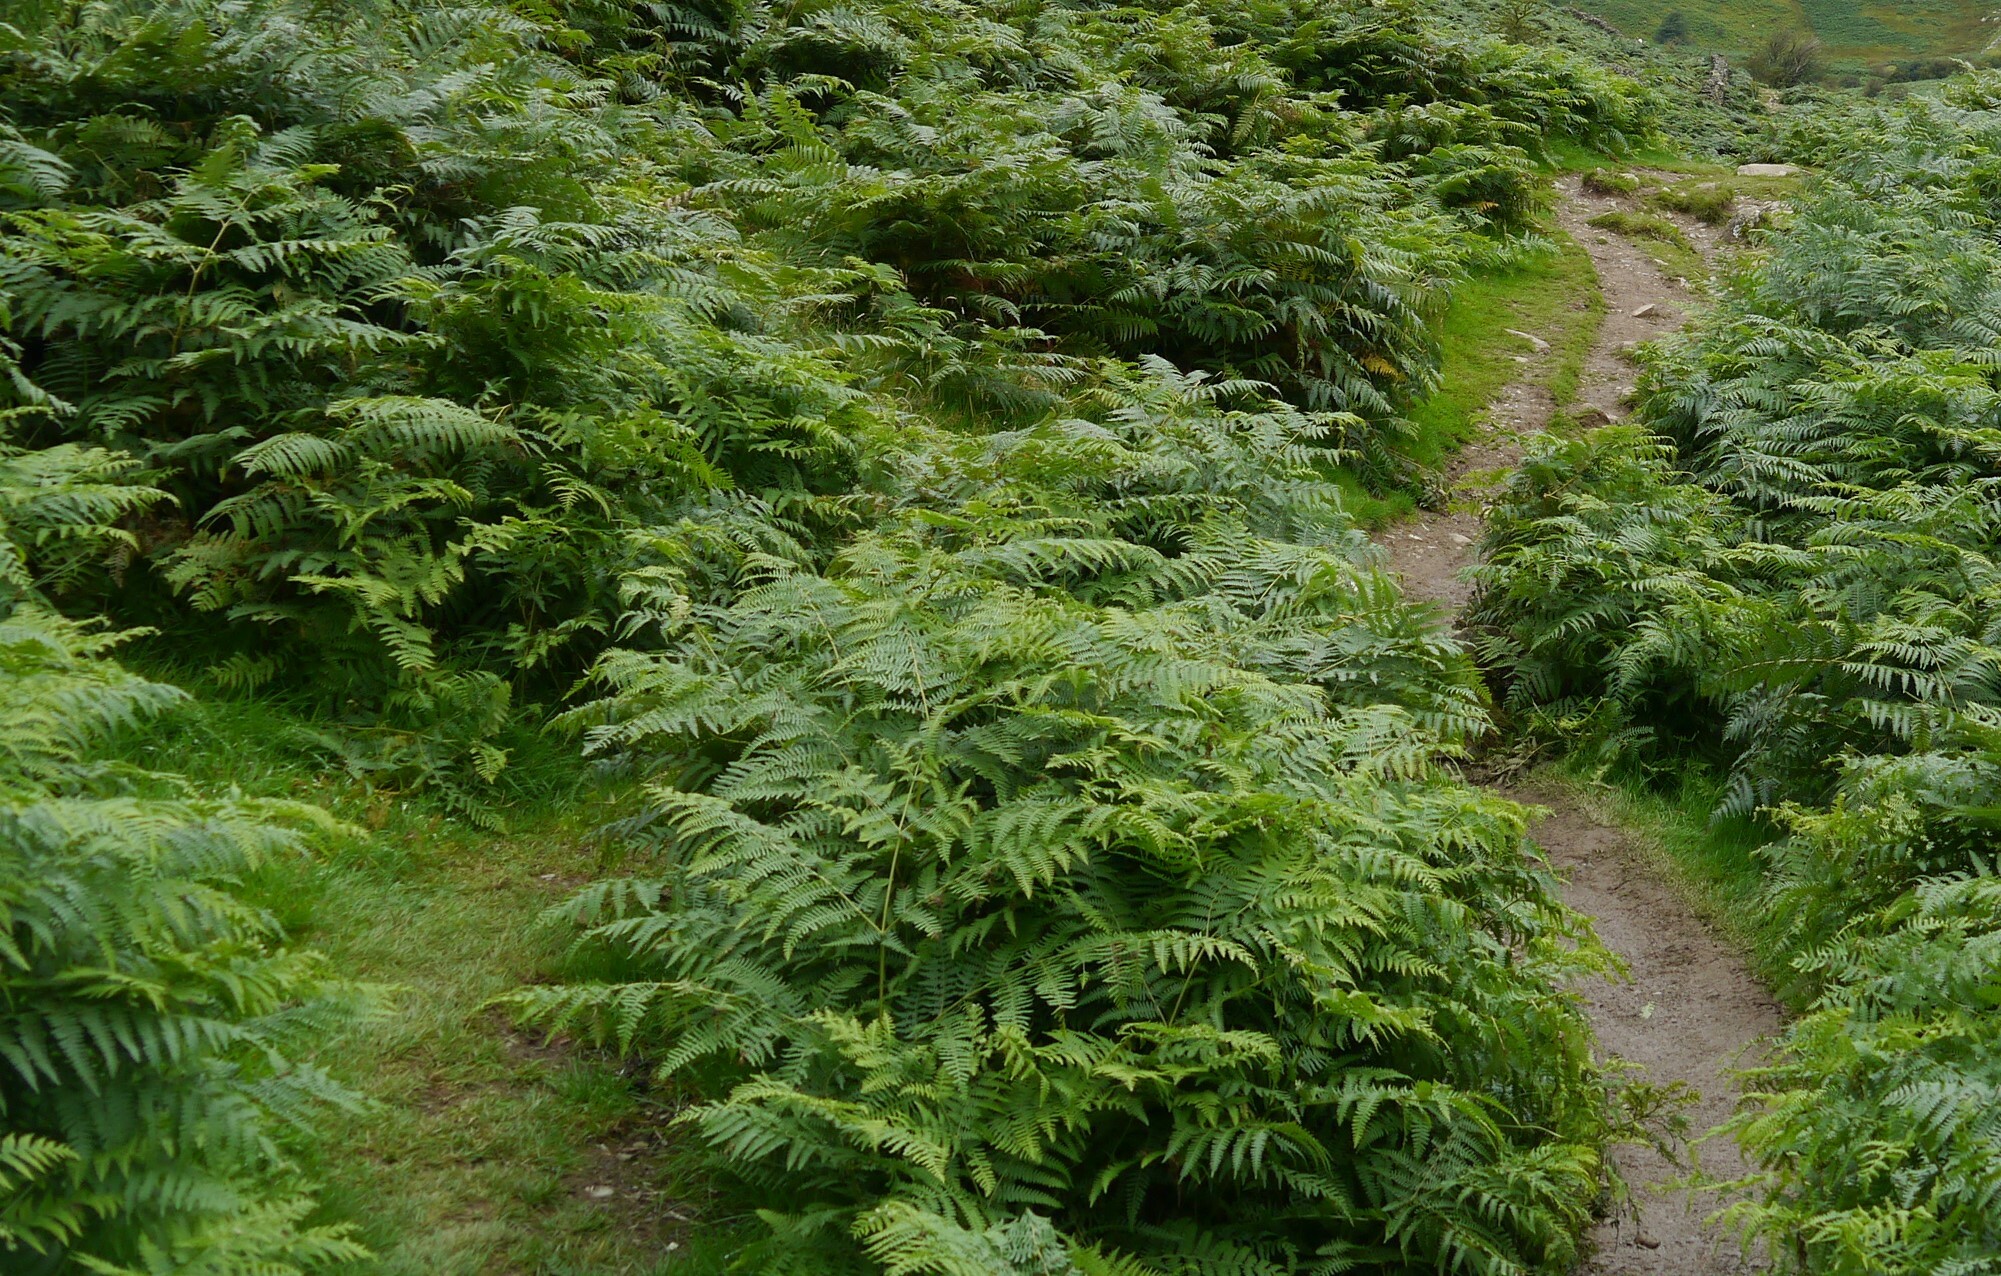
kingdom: Plantae
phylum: Tracheophyta
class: Polypodiopsida
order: Polypodiales
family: Dennstaedtiaceae
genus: Pteridium
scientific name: Pteridium aquilinum
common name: Bracken
